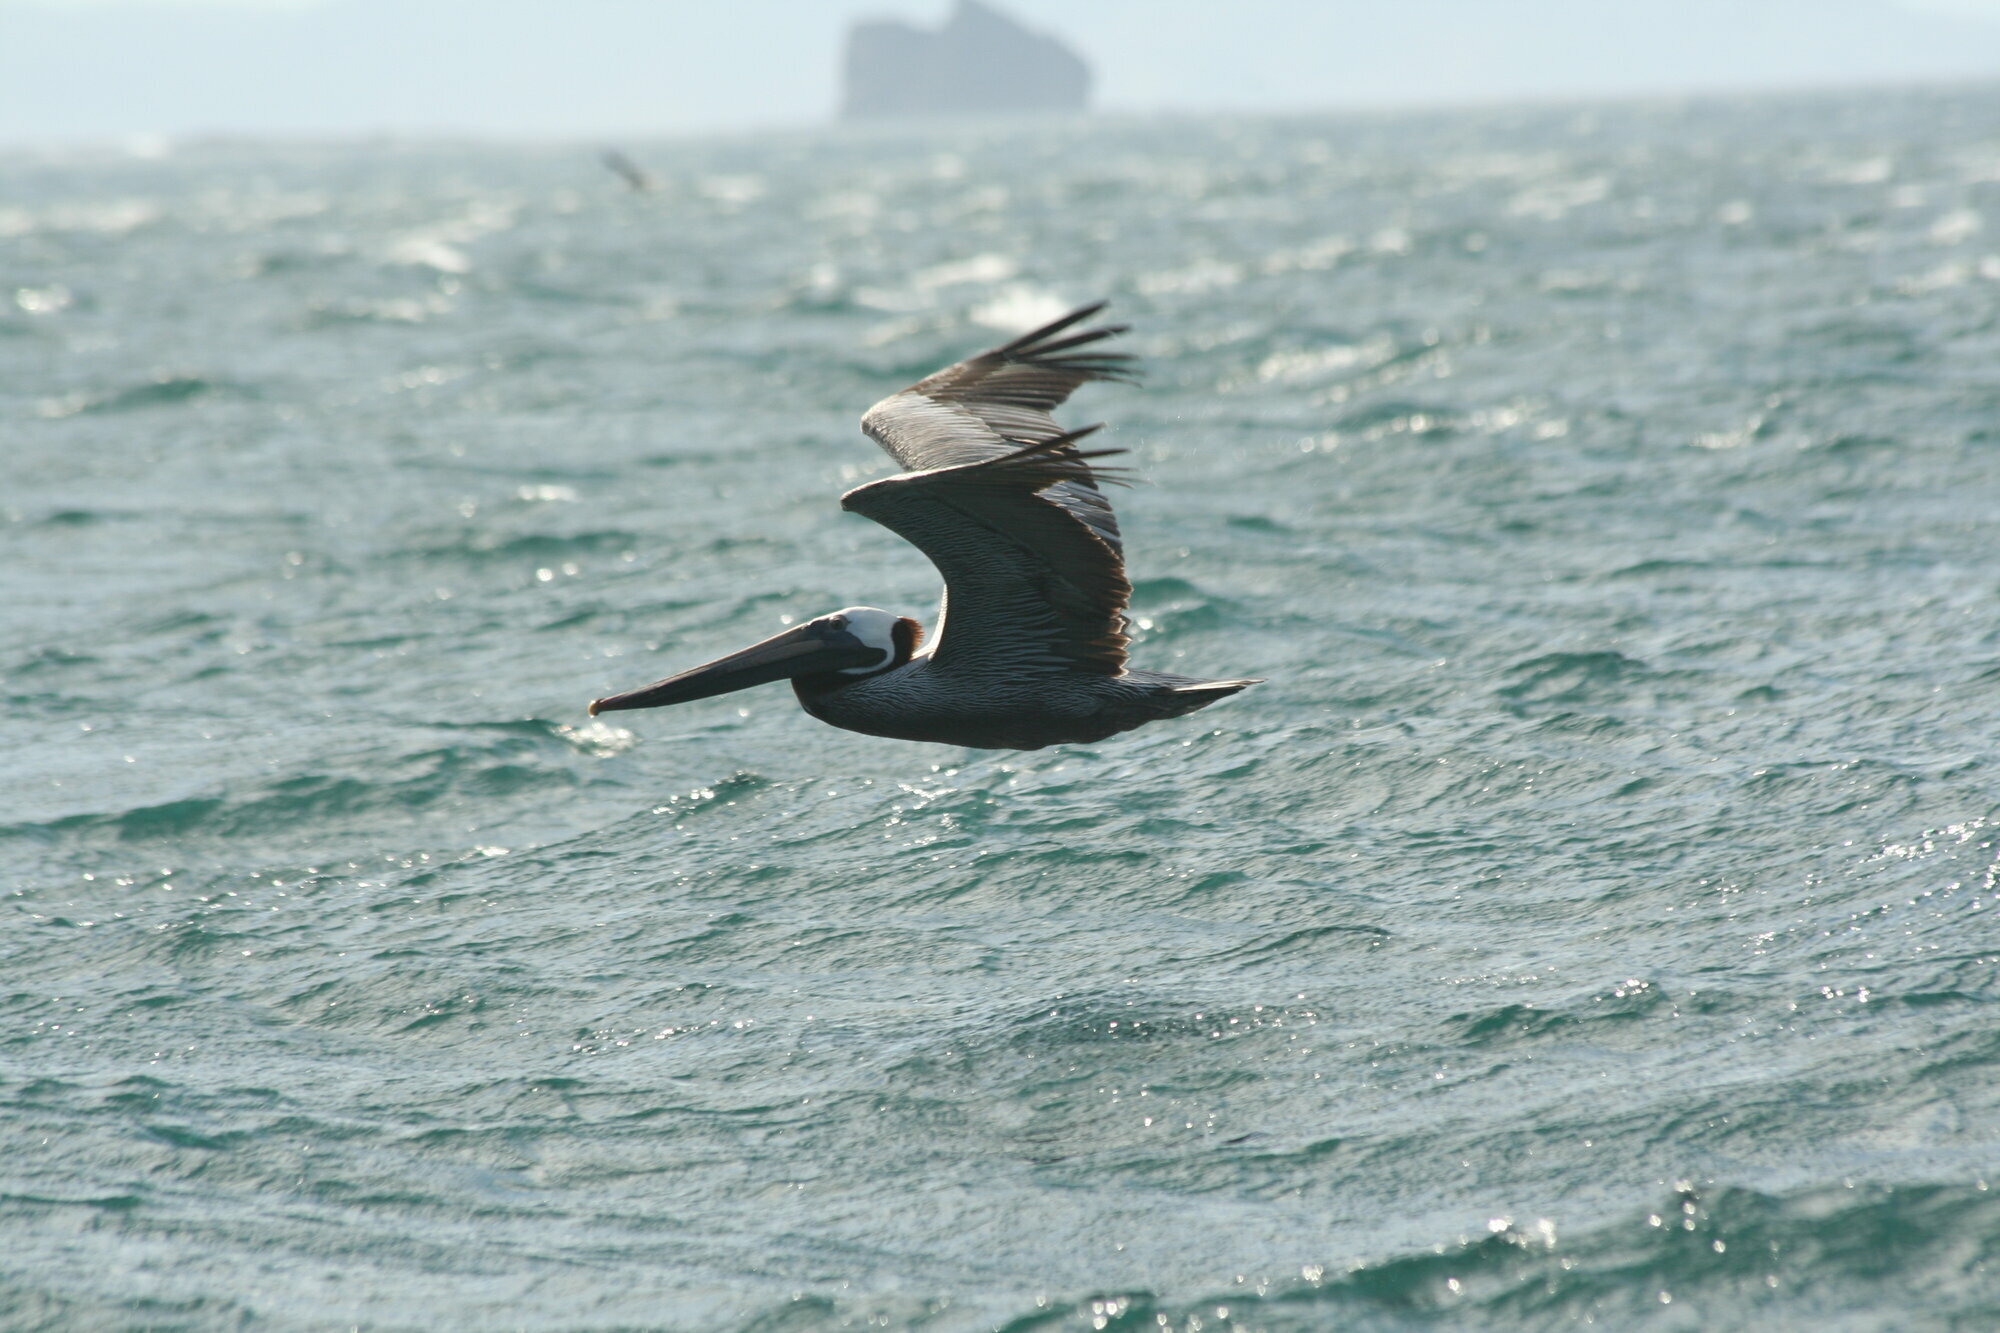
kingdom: Animalia
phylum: Chordata
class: Aves
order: Pelecaniformes
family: Pelecanidae
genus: Pelecanus
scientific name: Pelecanus occidentalis
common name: Brown pelican
